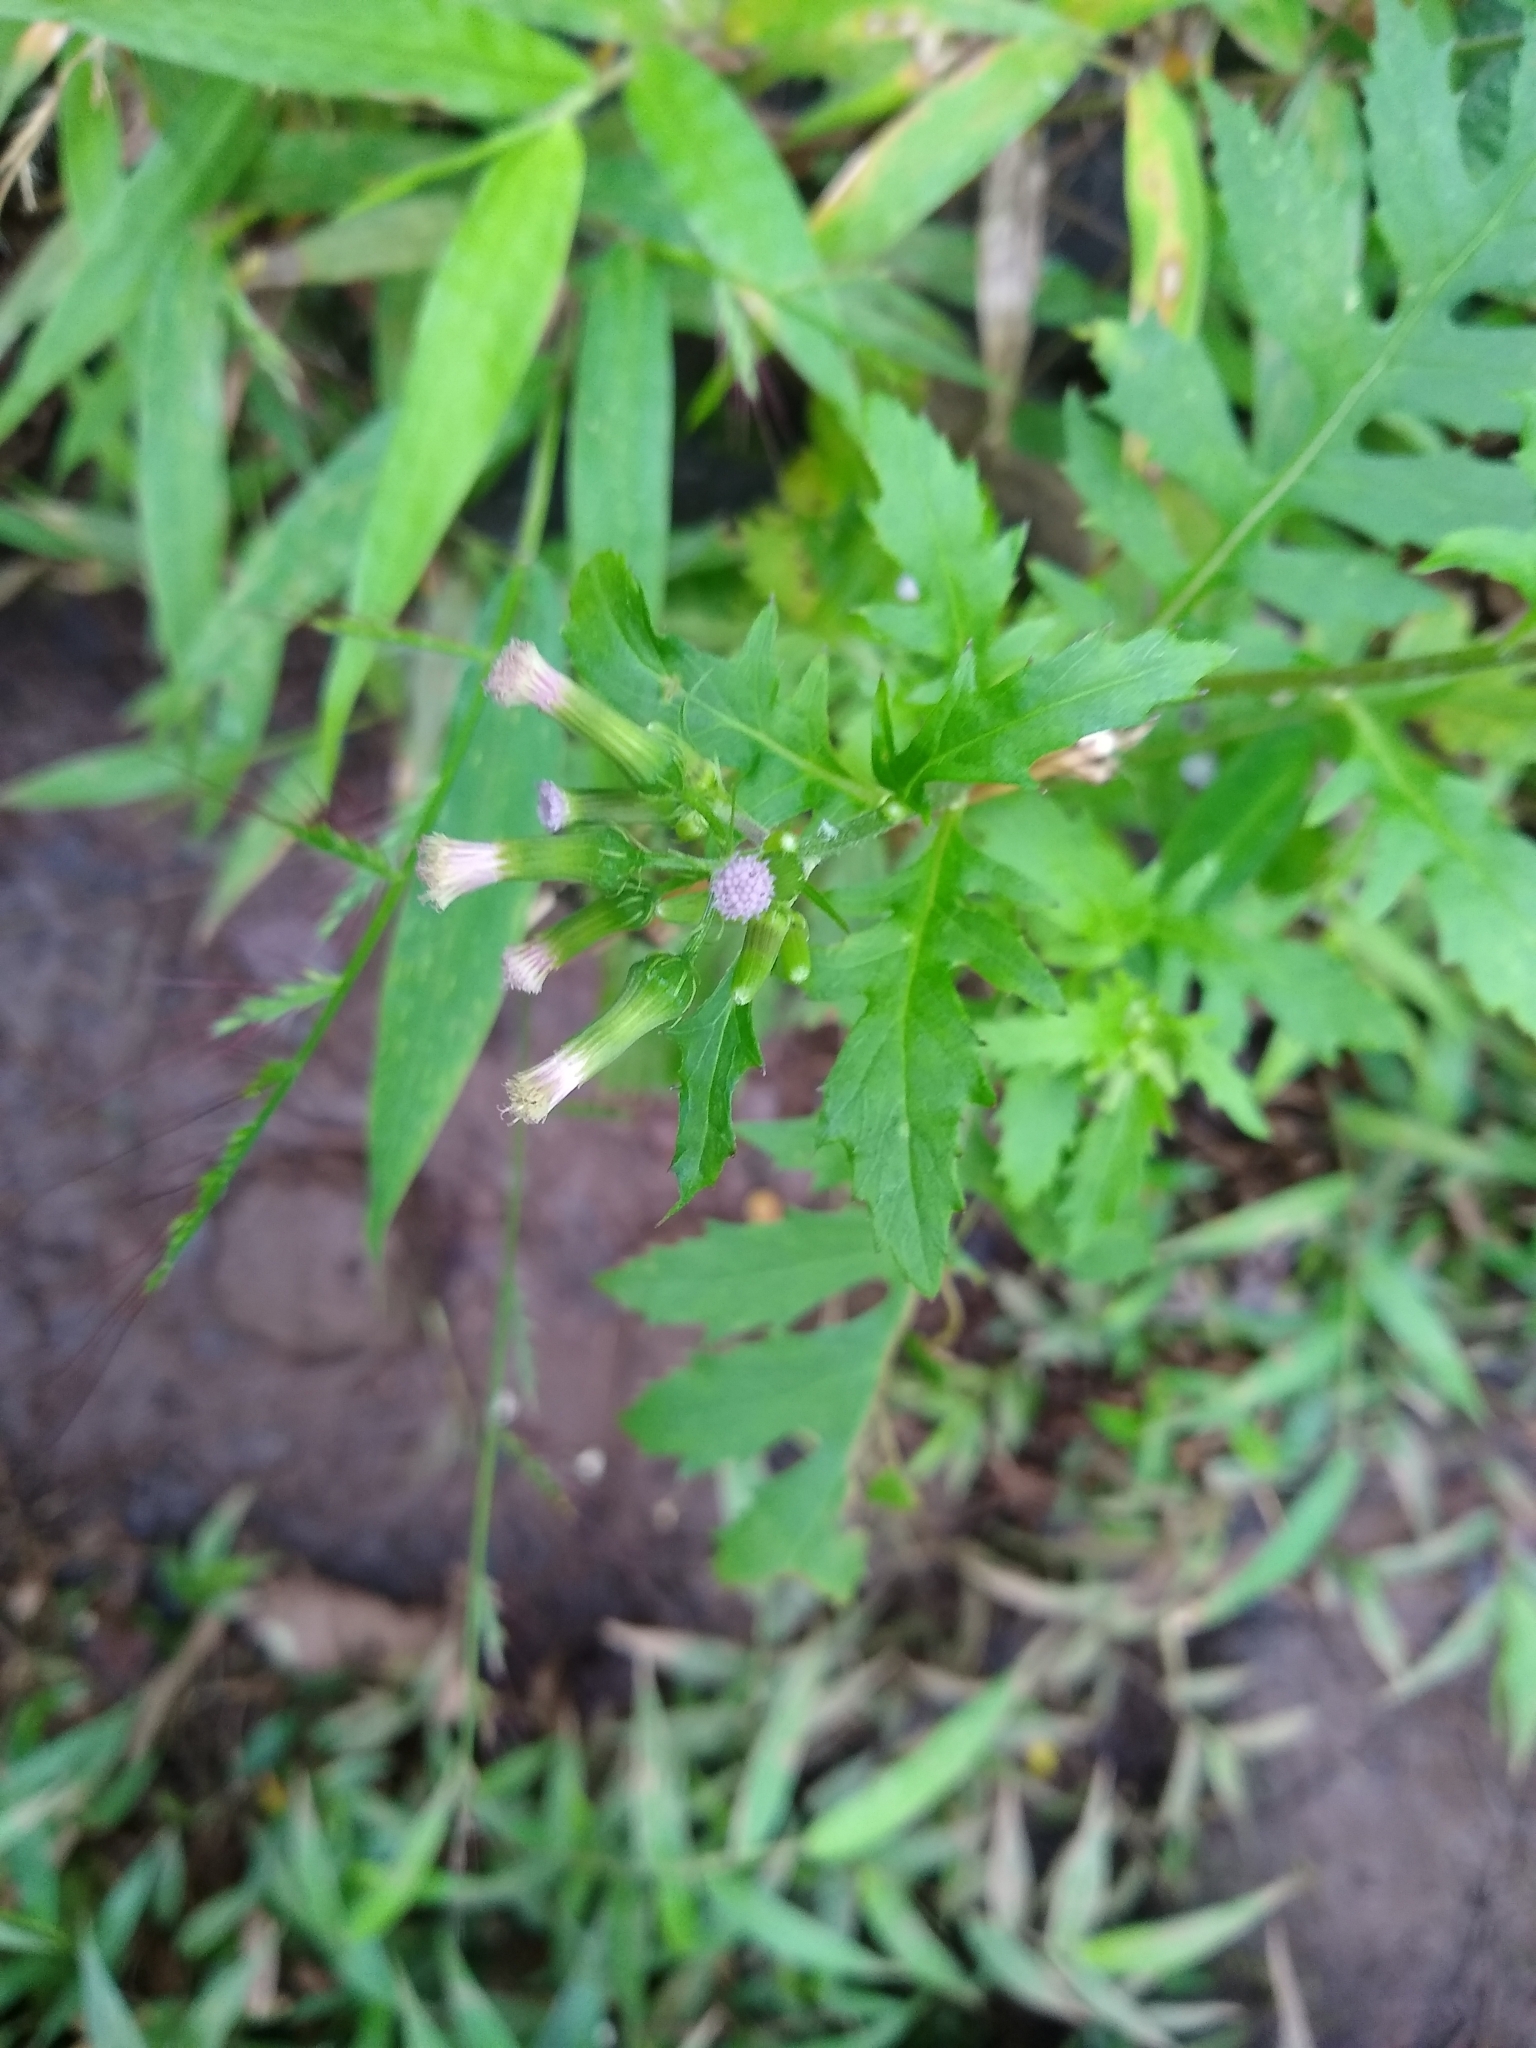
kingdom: Plantae
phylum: Tracheophyta
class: Magnoliopsida
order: Asterales
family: Asteraceae
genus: Erechtites
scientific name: Erechtites valerianifolius
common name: Tropical burnweed
